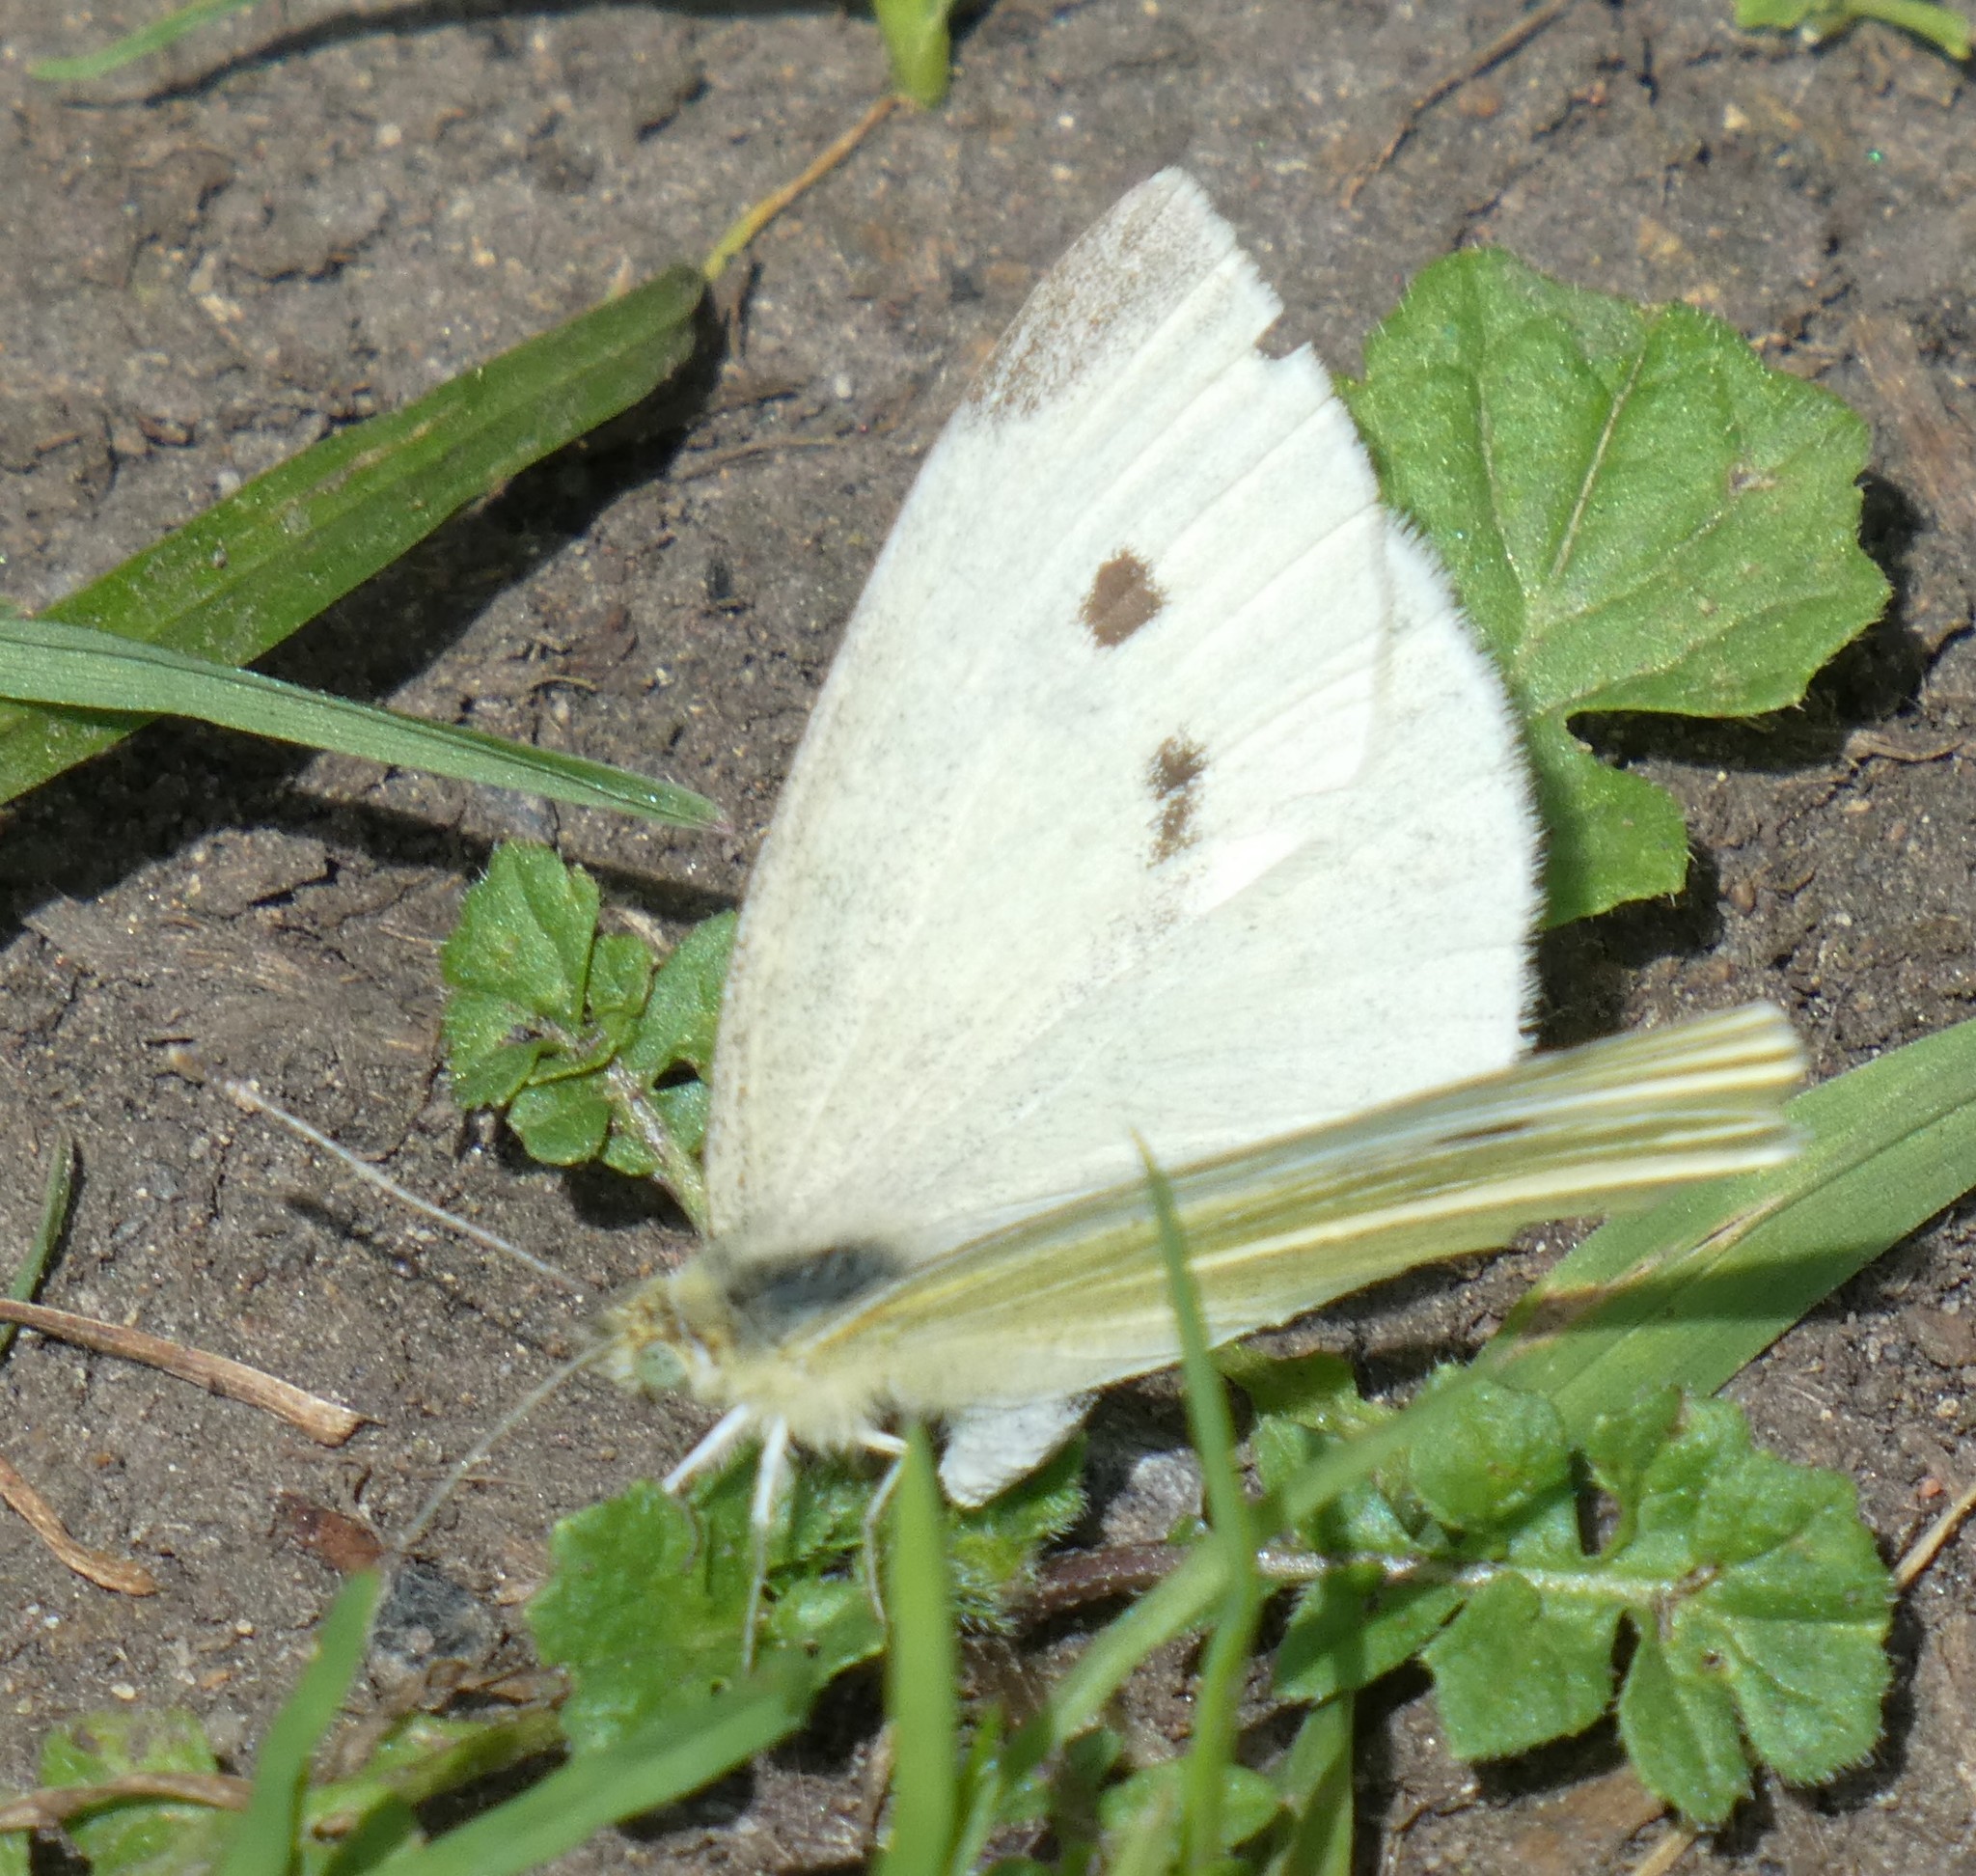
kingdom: Animalia
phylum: Arthropoda
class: Insecta
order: Lepidoptera
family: Pieridae
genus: Pieris
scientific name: Pieris rapae
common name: Small white
